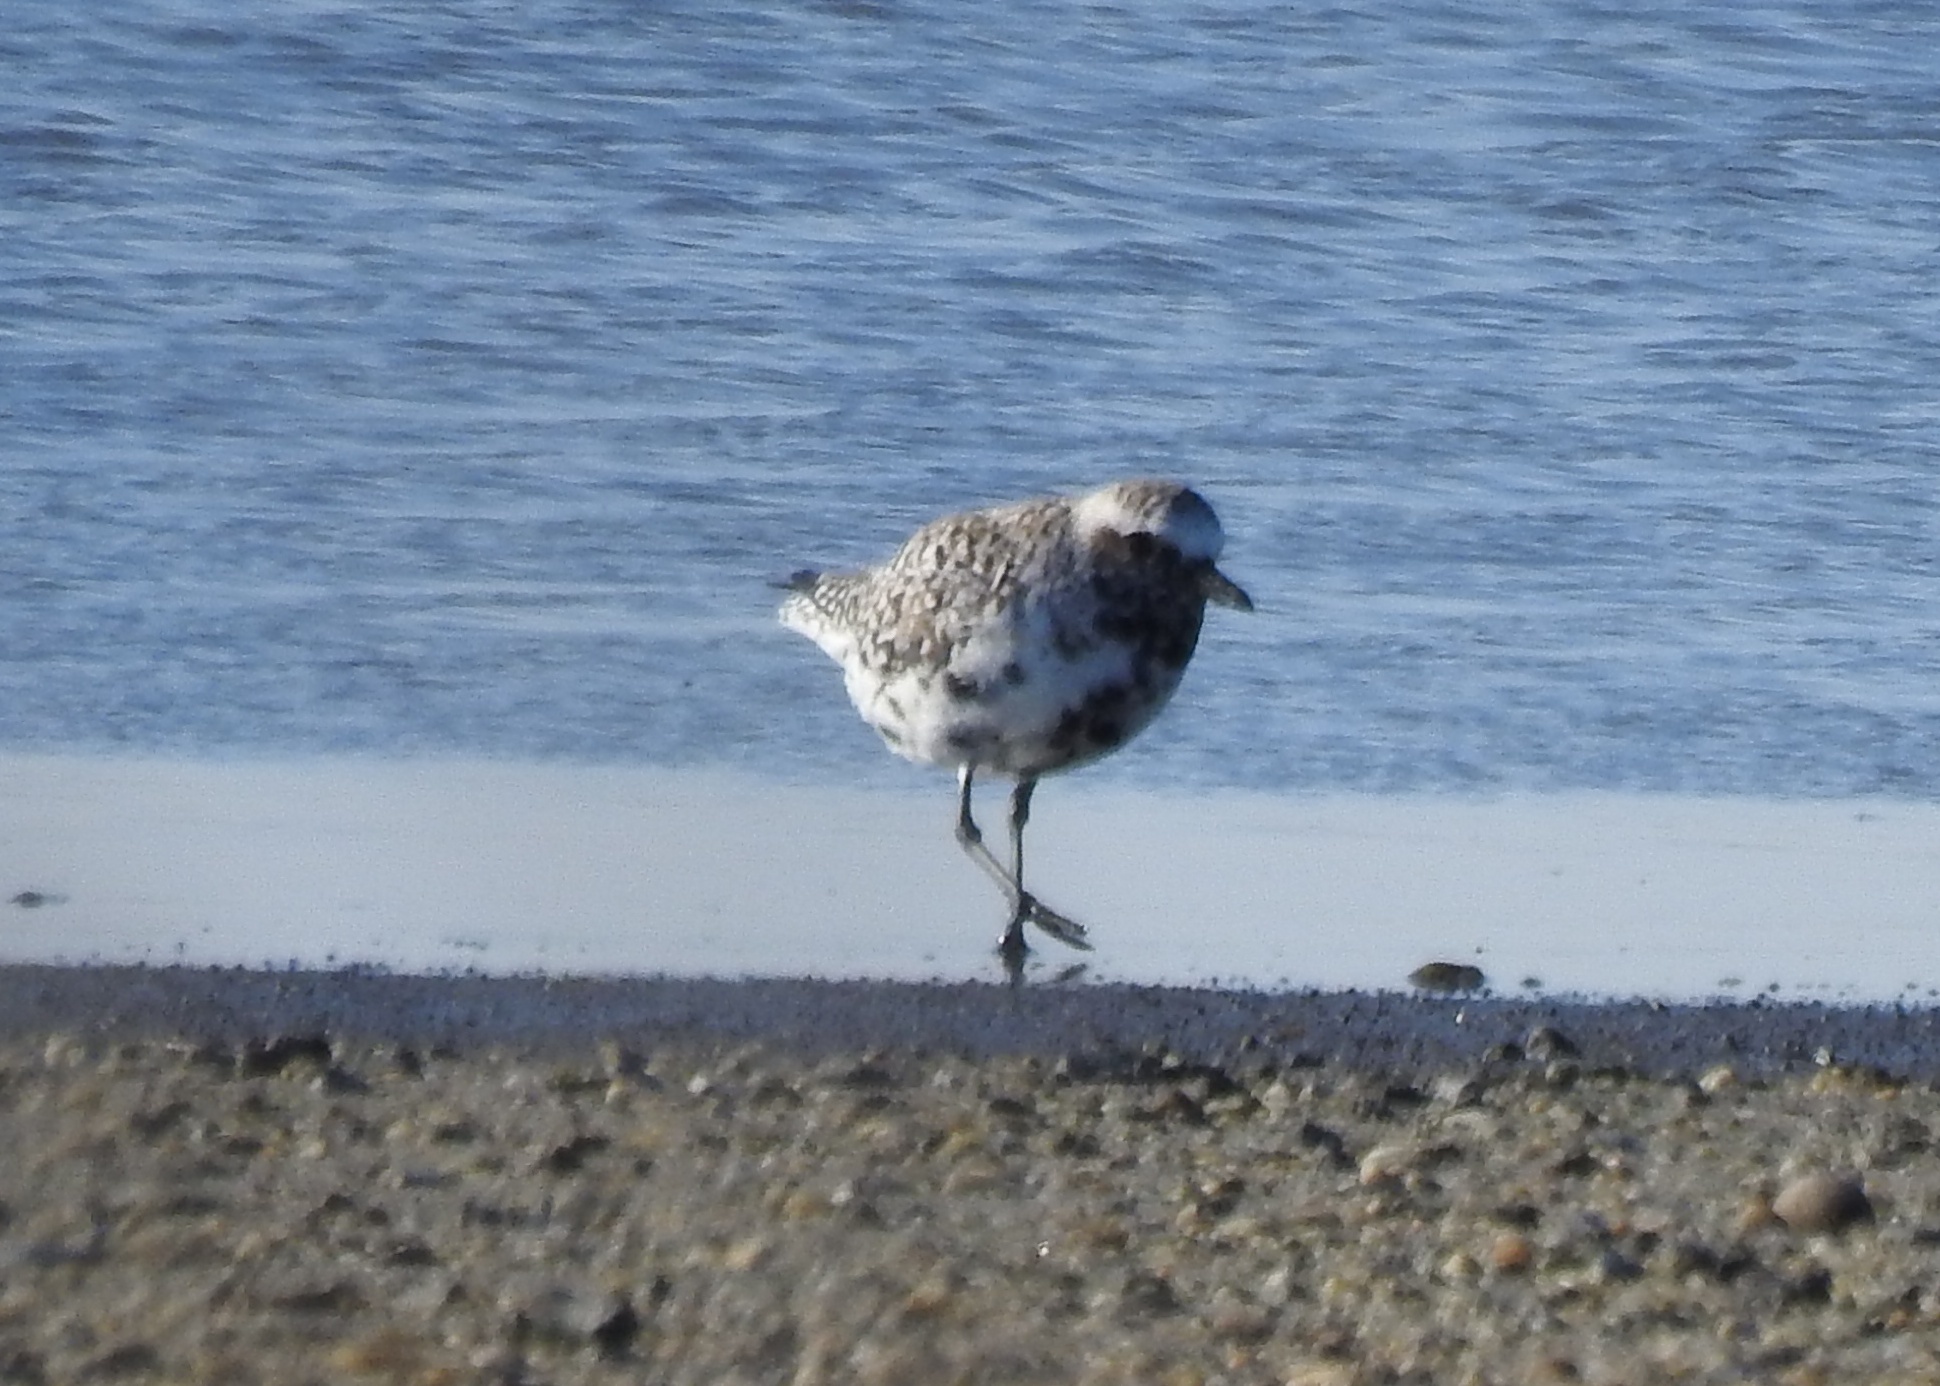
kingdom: Animalia
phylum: Chordata
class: Aves
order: Charadriiformes
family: Charadriidae
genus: Pluvialis
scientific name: Pluvialis squatarola
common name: Grey plover
